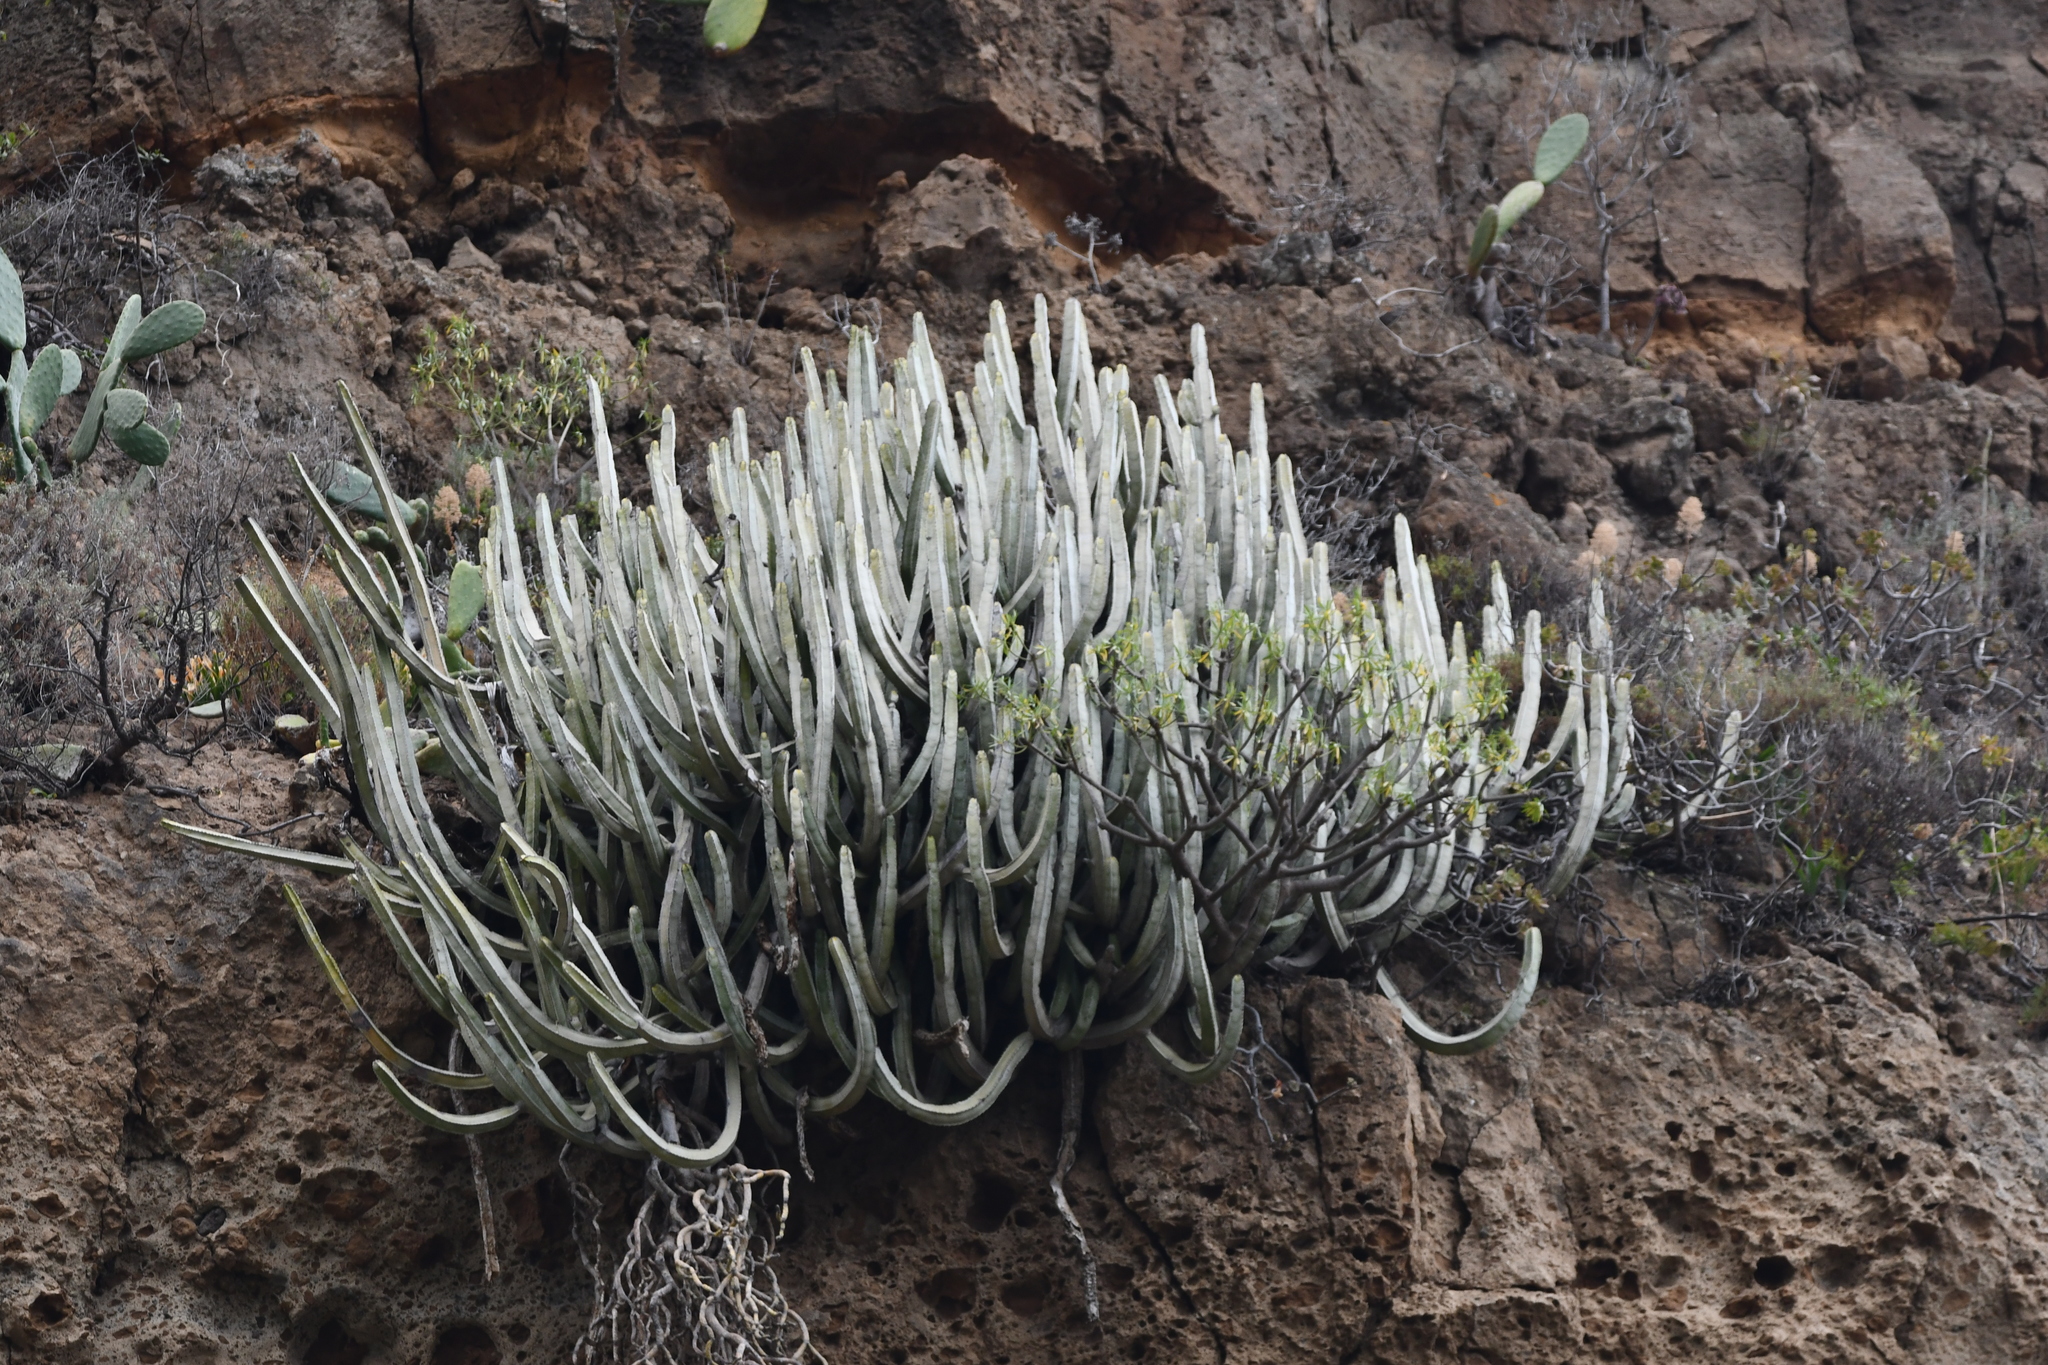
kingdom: Plantae
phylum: Tracheophyta
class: Magnoliopsida
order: Malpighiales
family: Euphorbiaceae
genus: Euphorbia
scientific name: Euphorbia canariensis
